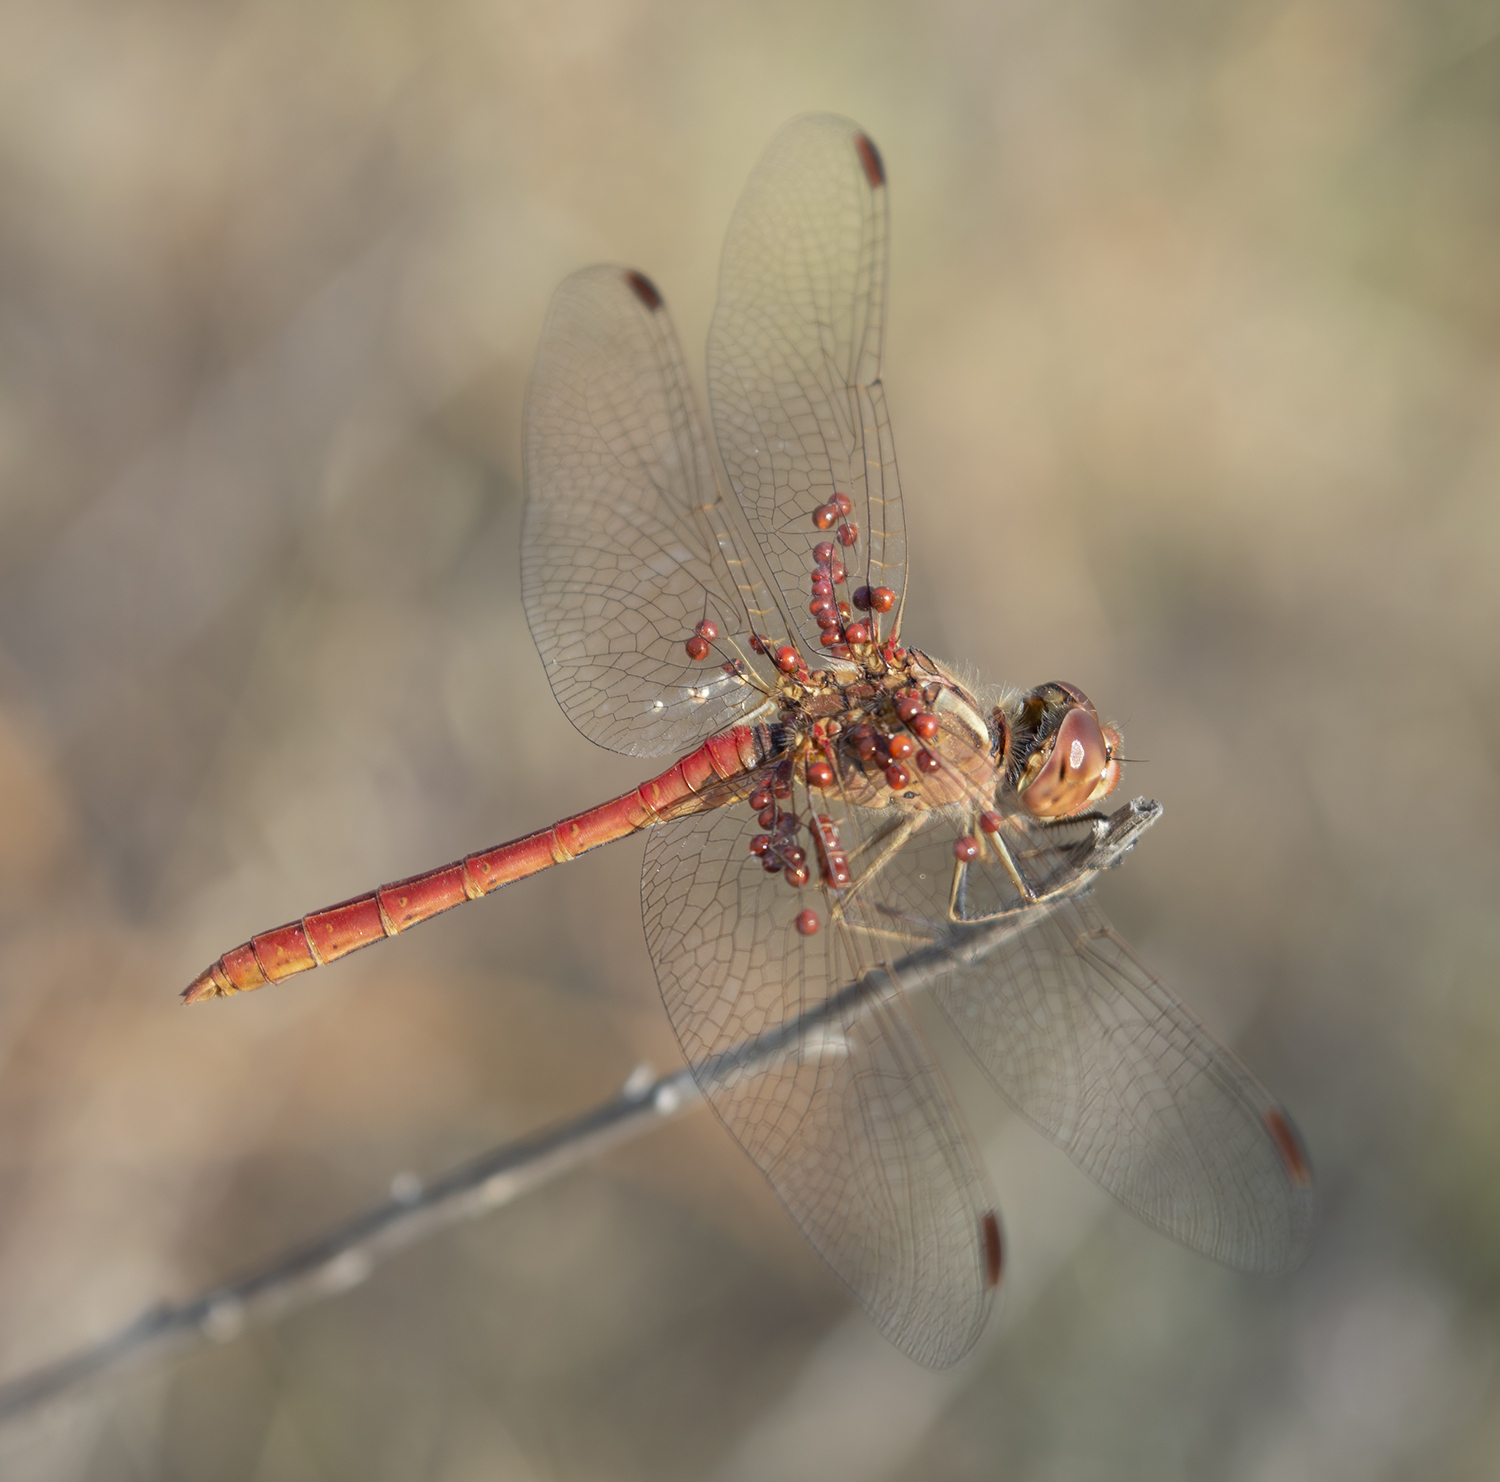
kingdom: Animalia
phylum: Arthropoda
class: Insecta
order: Odonata
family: Libellulidae
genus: Sympetrum
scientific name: Sympetrum meridionale
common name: Southern darter
